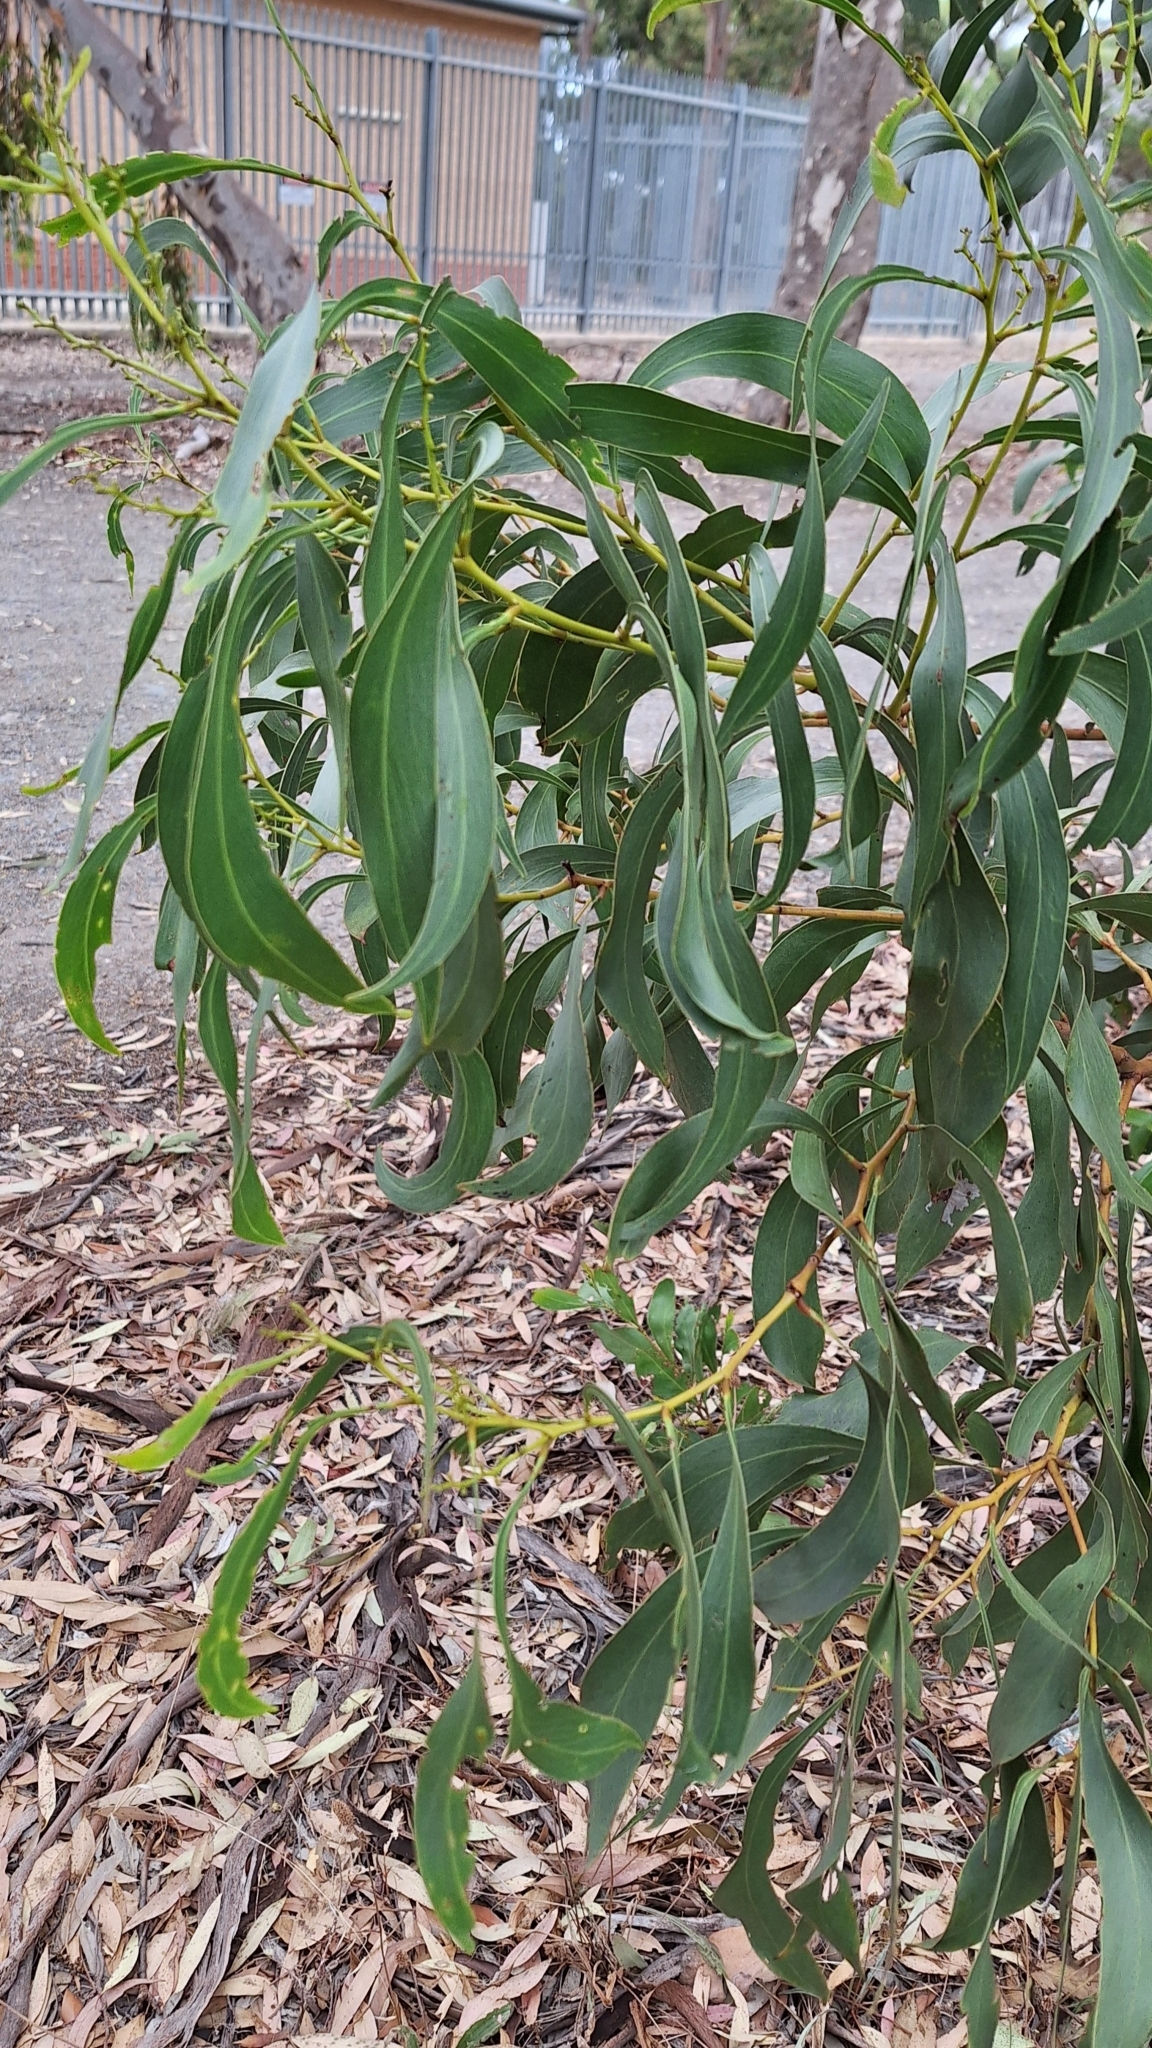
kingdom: Plantae
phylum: Tracheophyta
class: Magnoliopsida
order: Fabales
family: Fabaceae
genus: Acacia
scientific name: Acacia pycnantha
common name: Golden wattle
